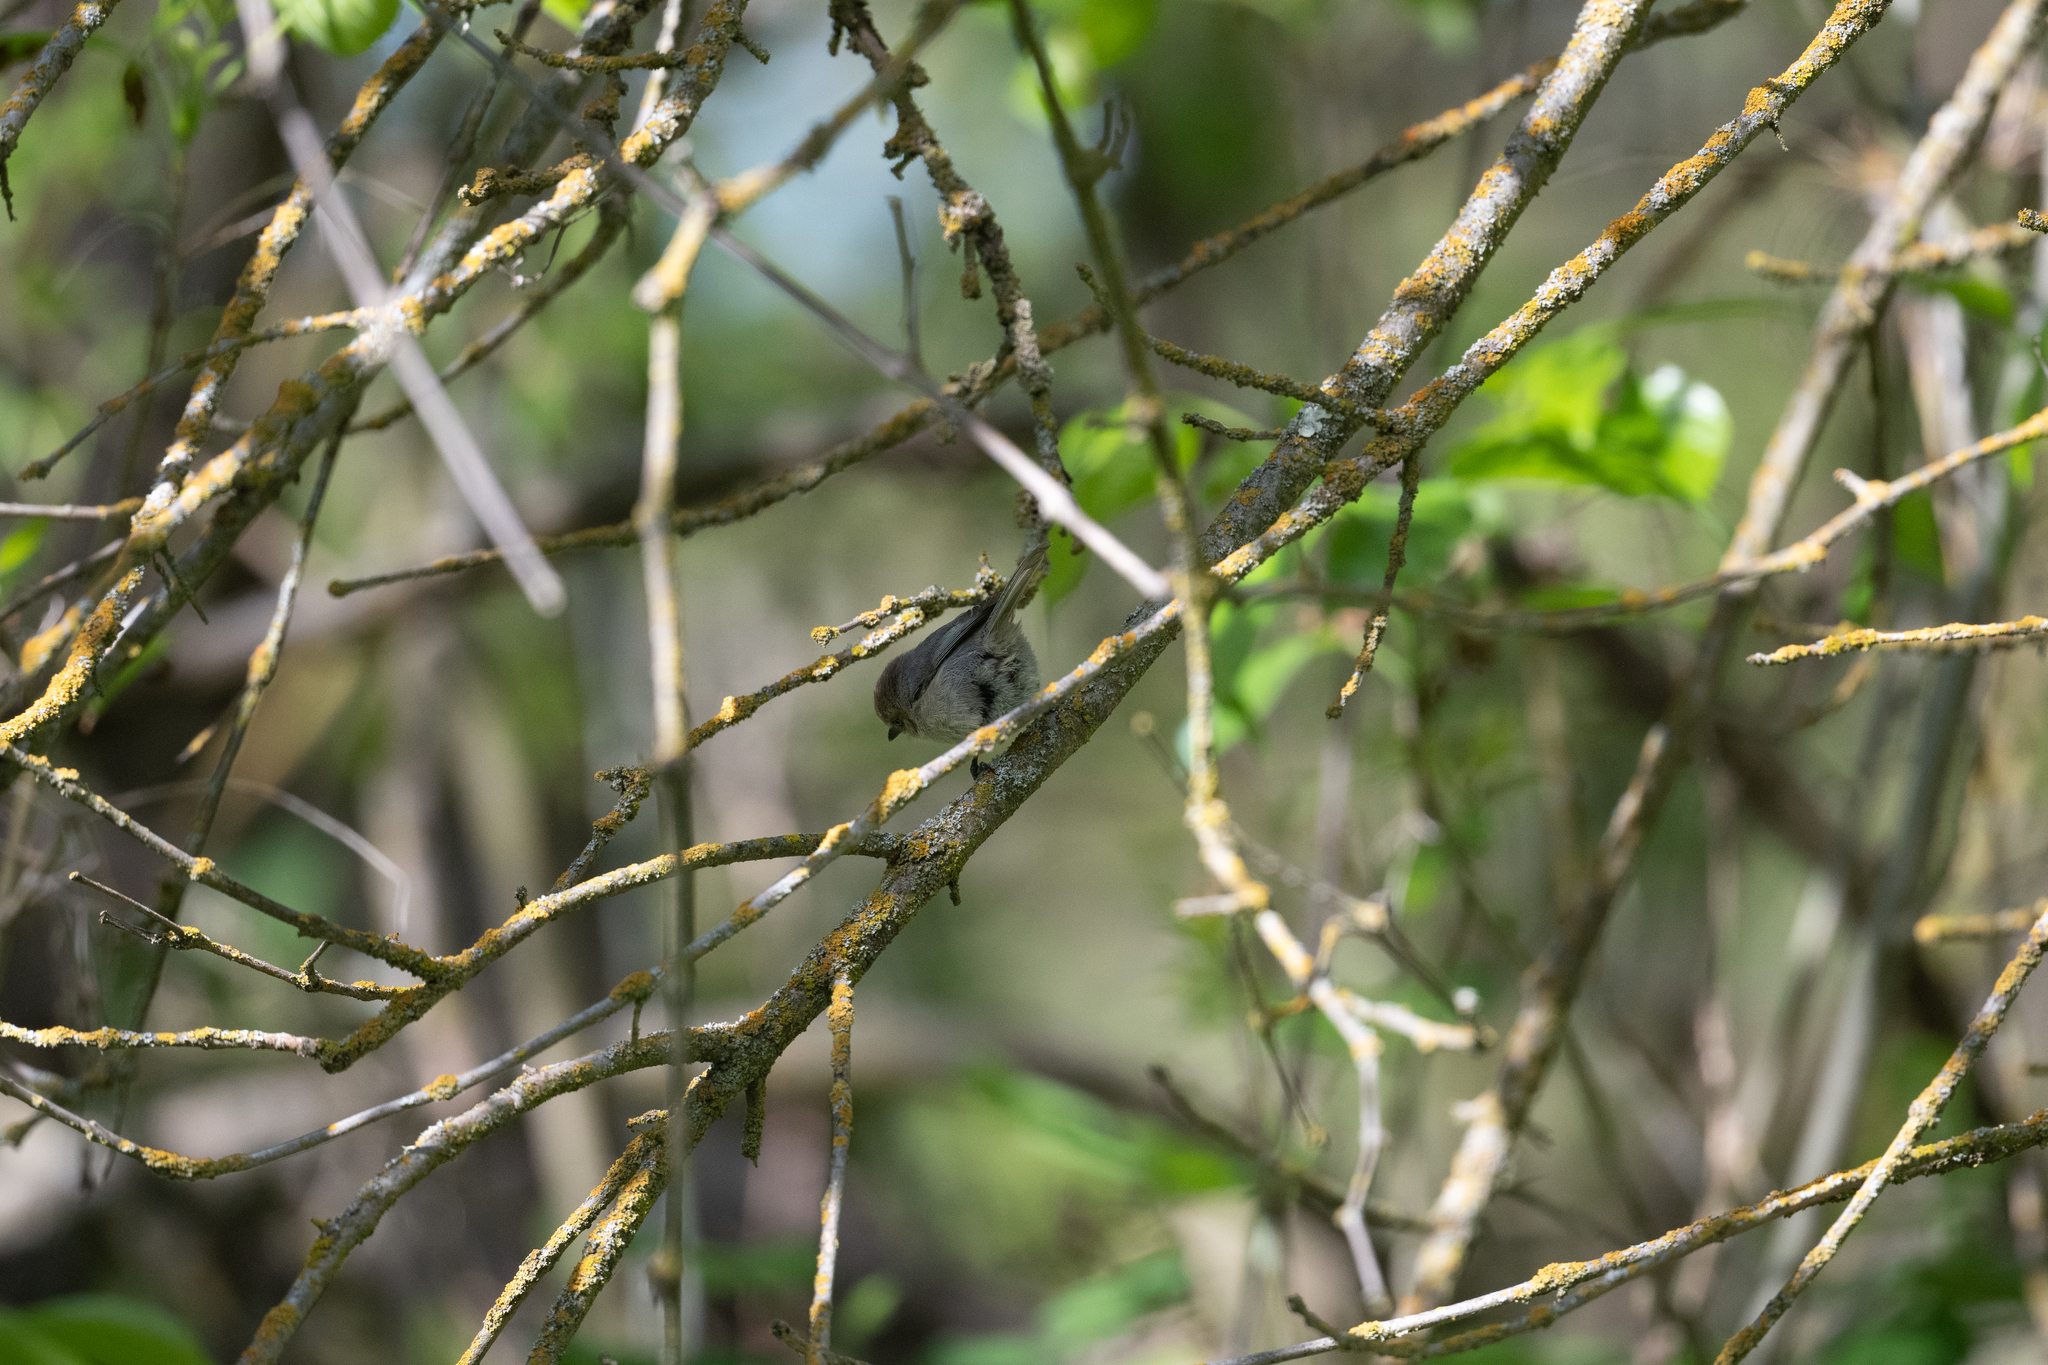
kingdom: Animalia
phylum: Chordata
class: Aves
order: Passeriformes
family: Aegithalidae
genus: Psaltriparus
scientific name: Psaltriparus minimus
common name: American bushtit
